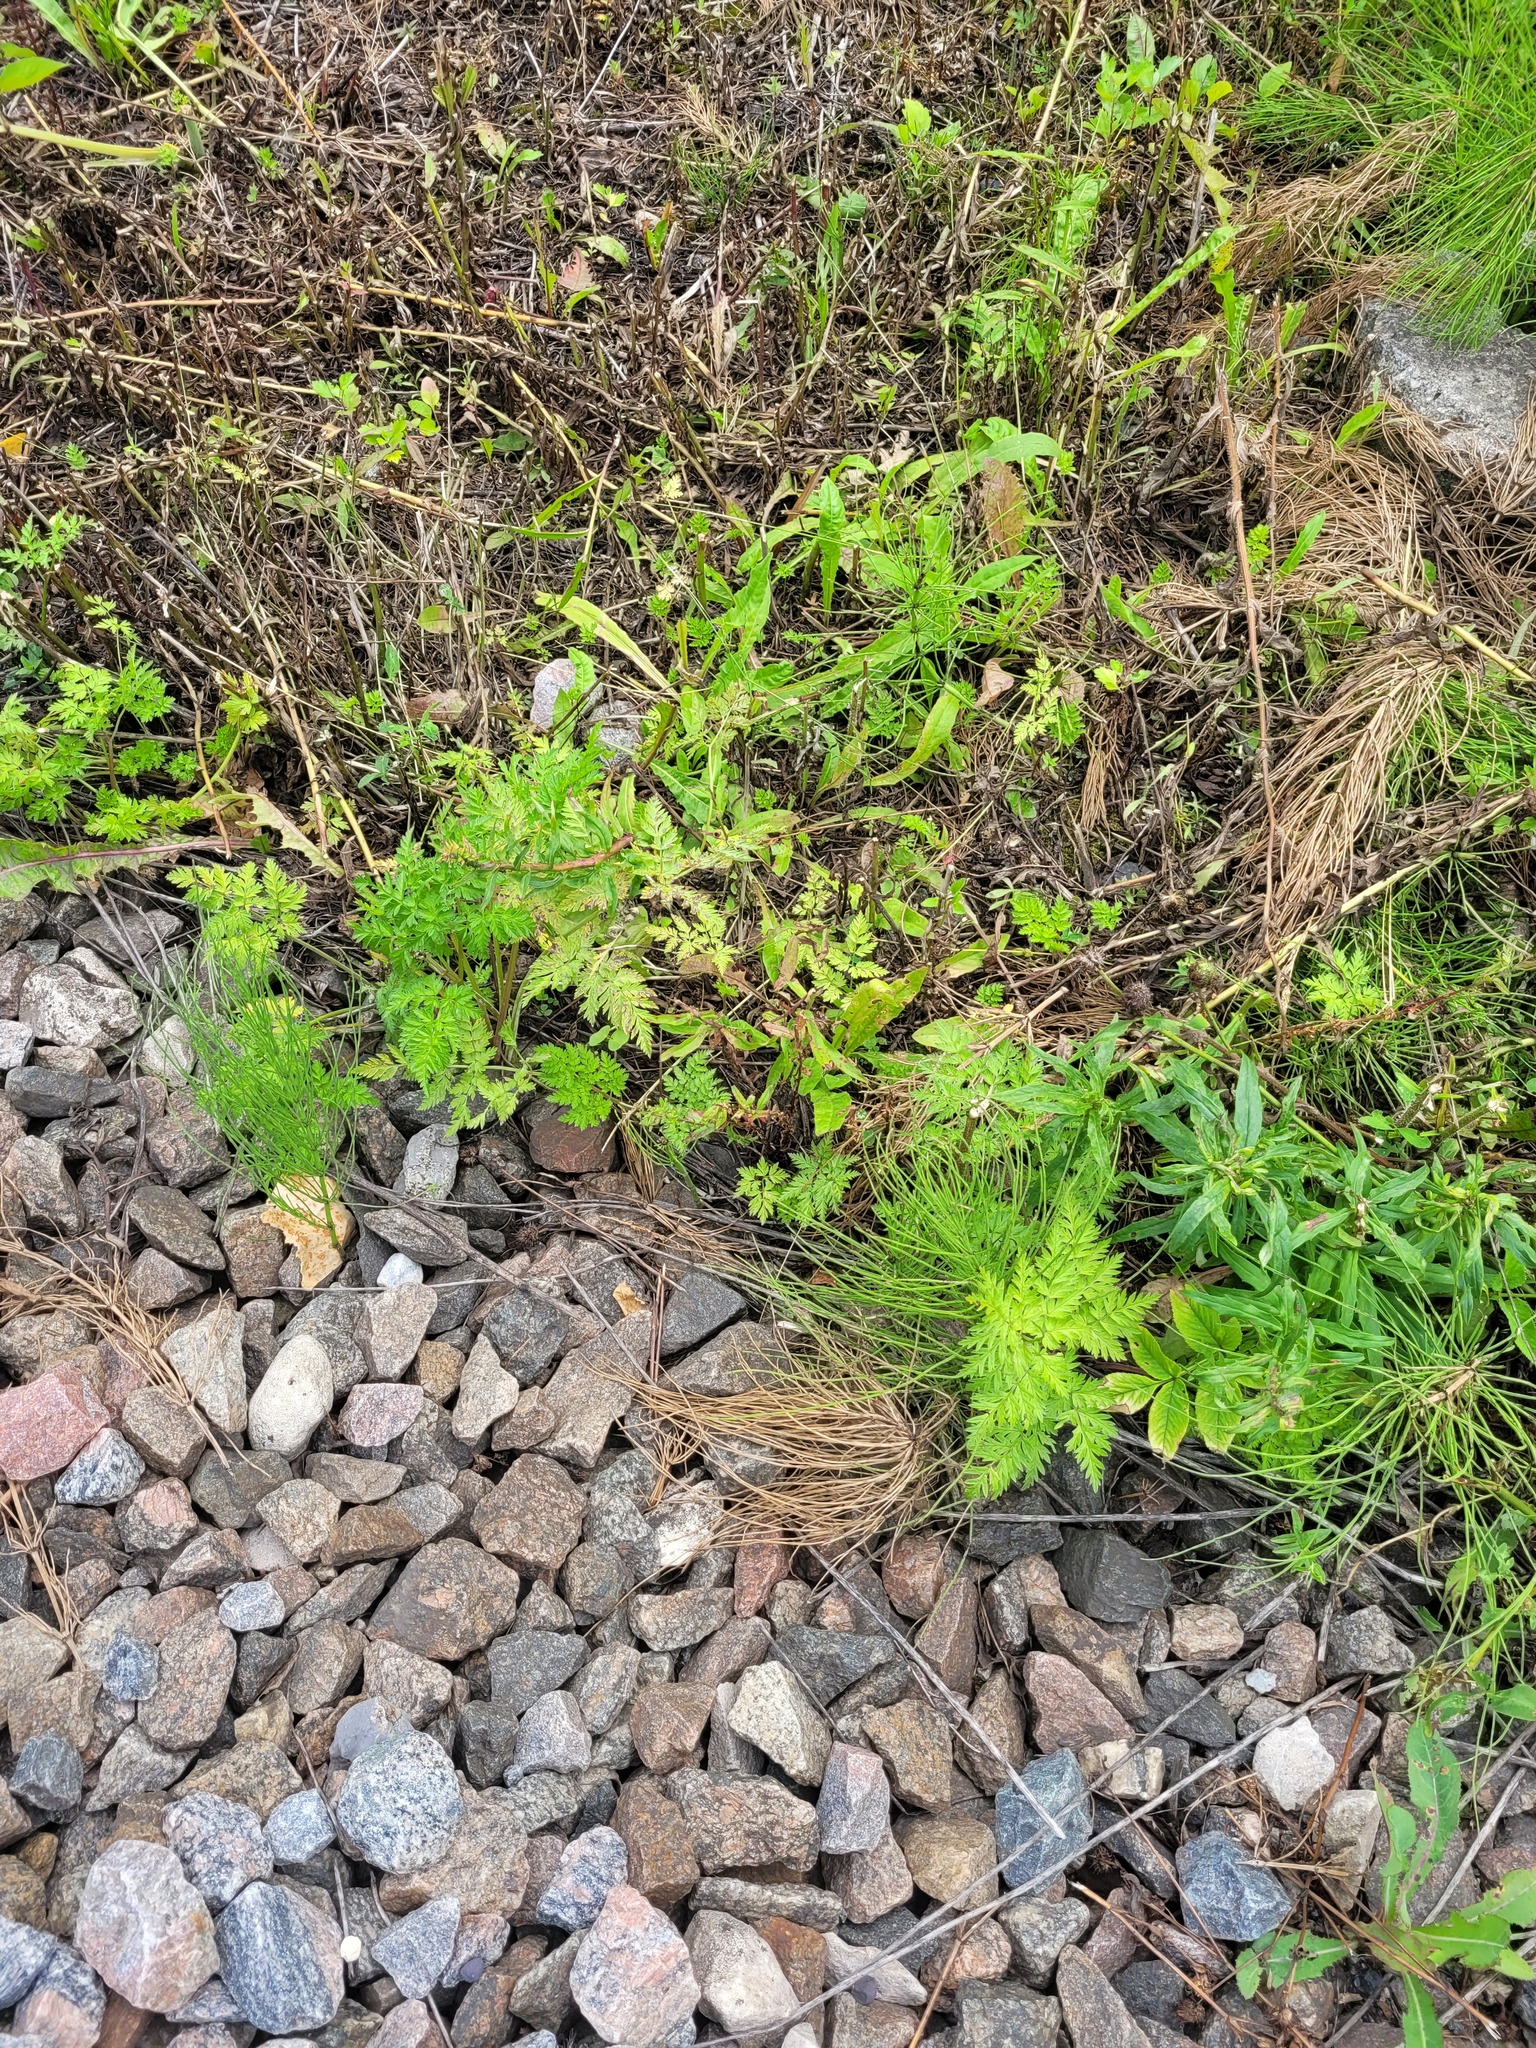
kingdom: Plantae
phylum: Tracheophyta
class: Magnoliopsida
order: Apiales
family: Apiaceae
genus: Anthriscus
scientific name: Anthriscus sylvestris
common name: Cow parsley
